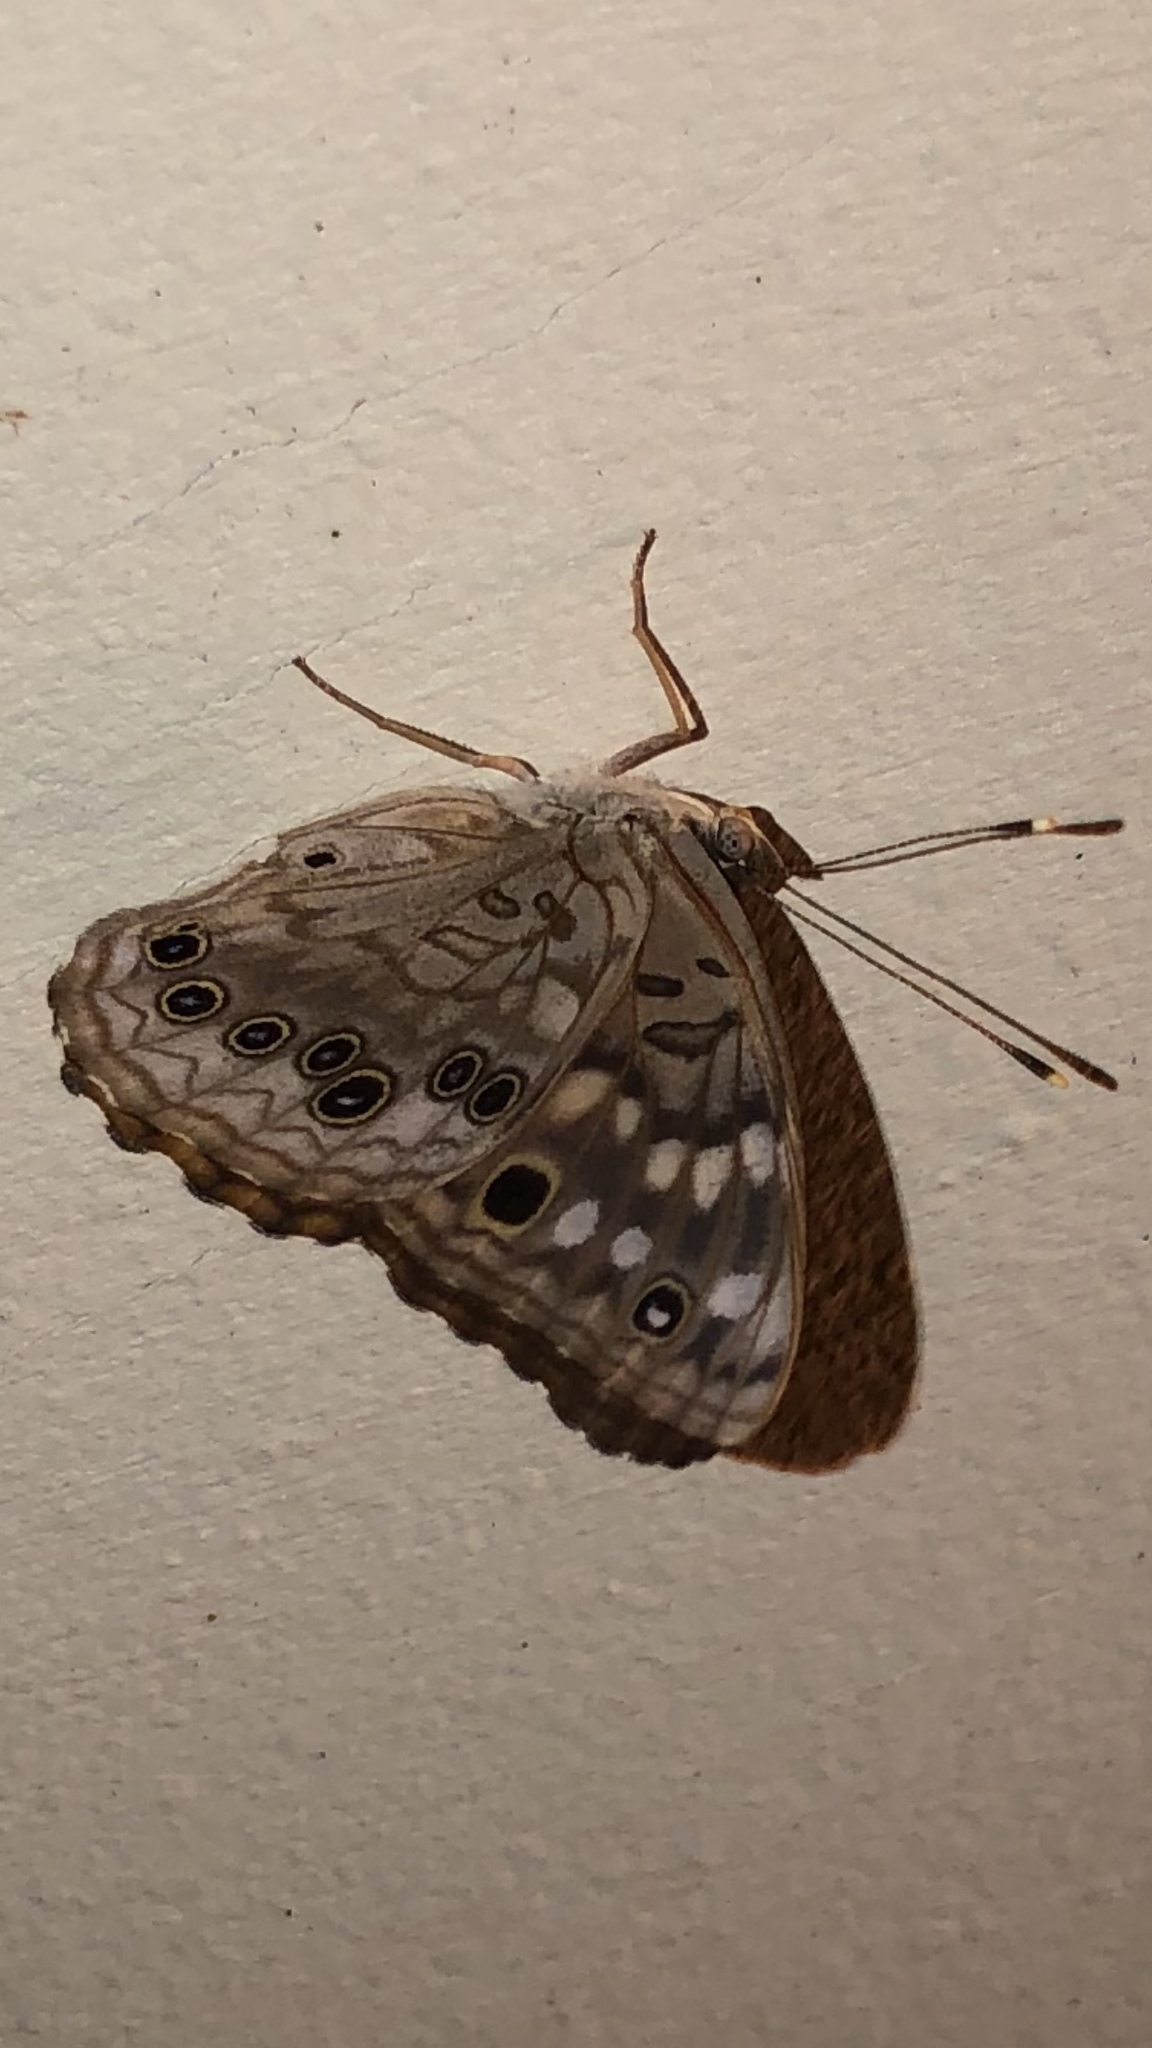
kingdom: Animalia
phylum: Arthropoda
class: Insecta
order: Lepidoptera
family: Nymphalidae
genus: Asterocampa
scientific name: Asterocampa celtis
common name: Hackberry emperor
